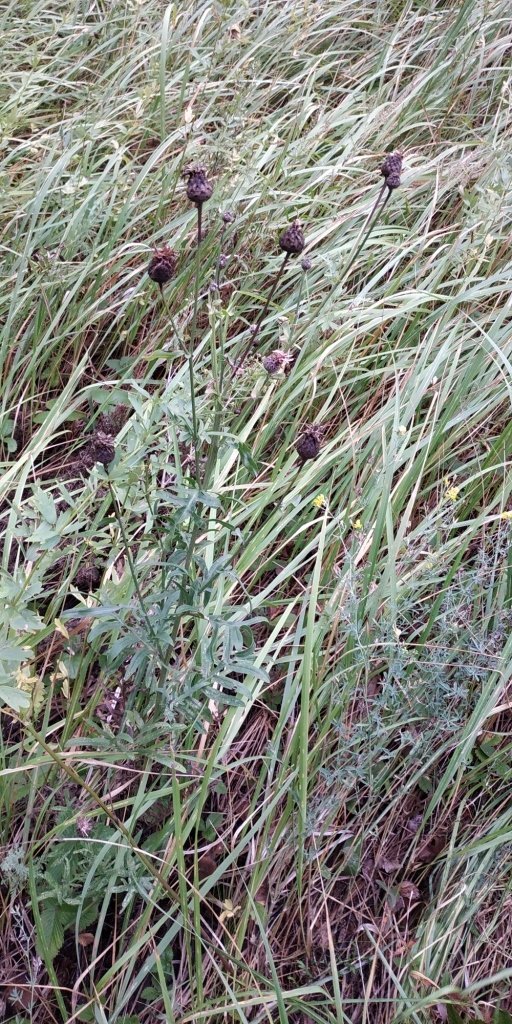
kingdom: Plantae
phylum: Tracheophyta
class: Magnoliopsida
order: Asterales
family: Asteraceae
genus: Centaurea
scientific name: Centaurea scabiosa
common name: Greater knapweed
